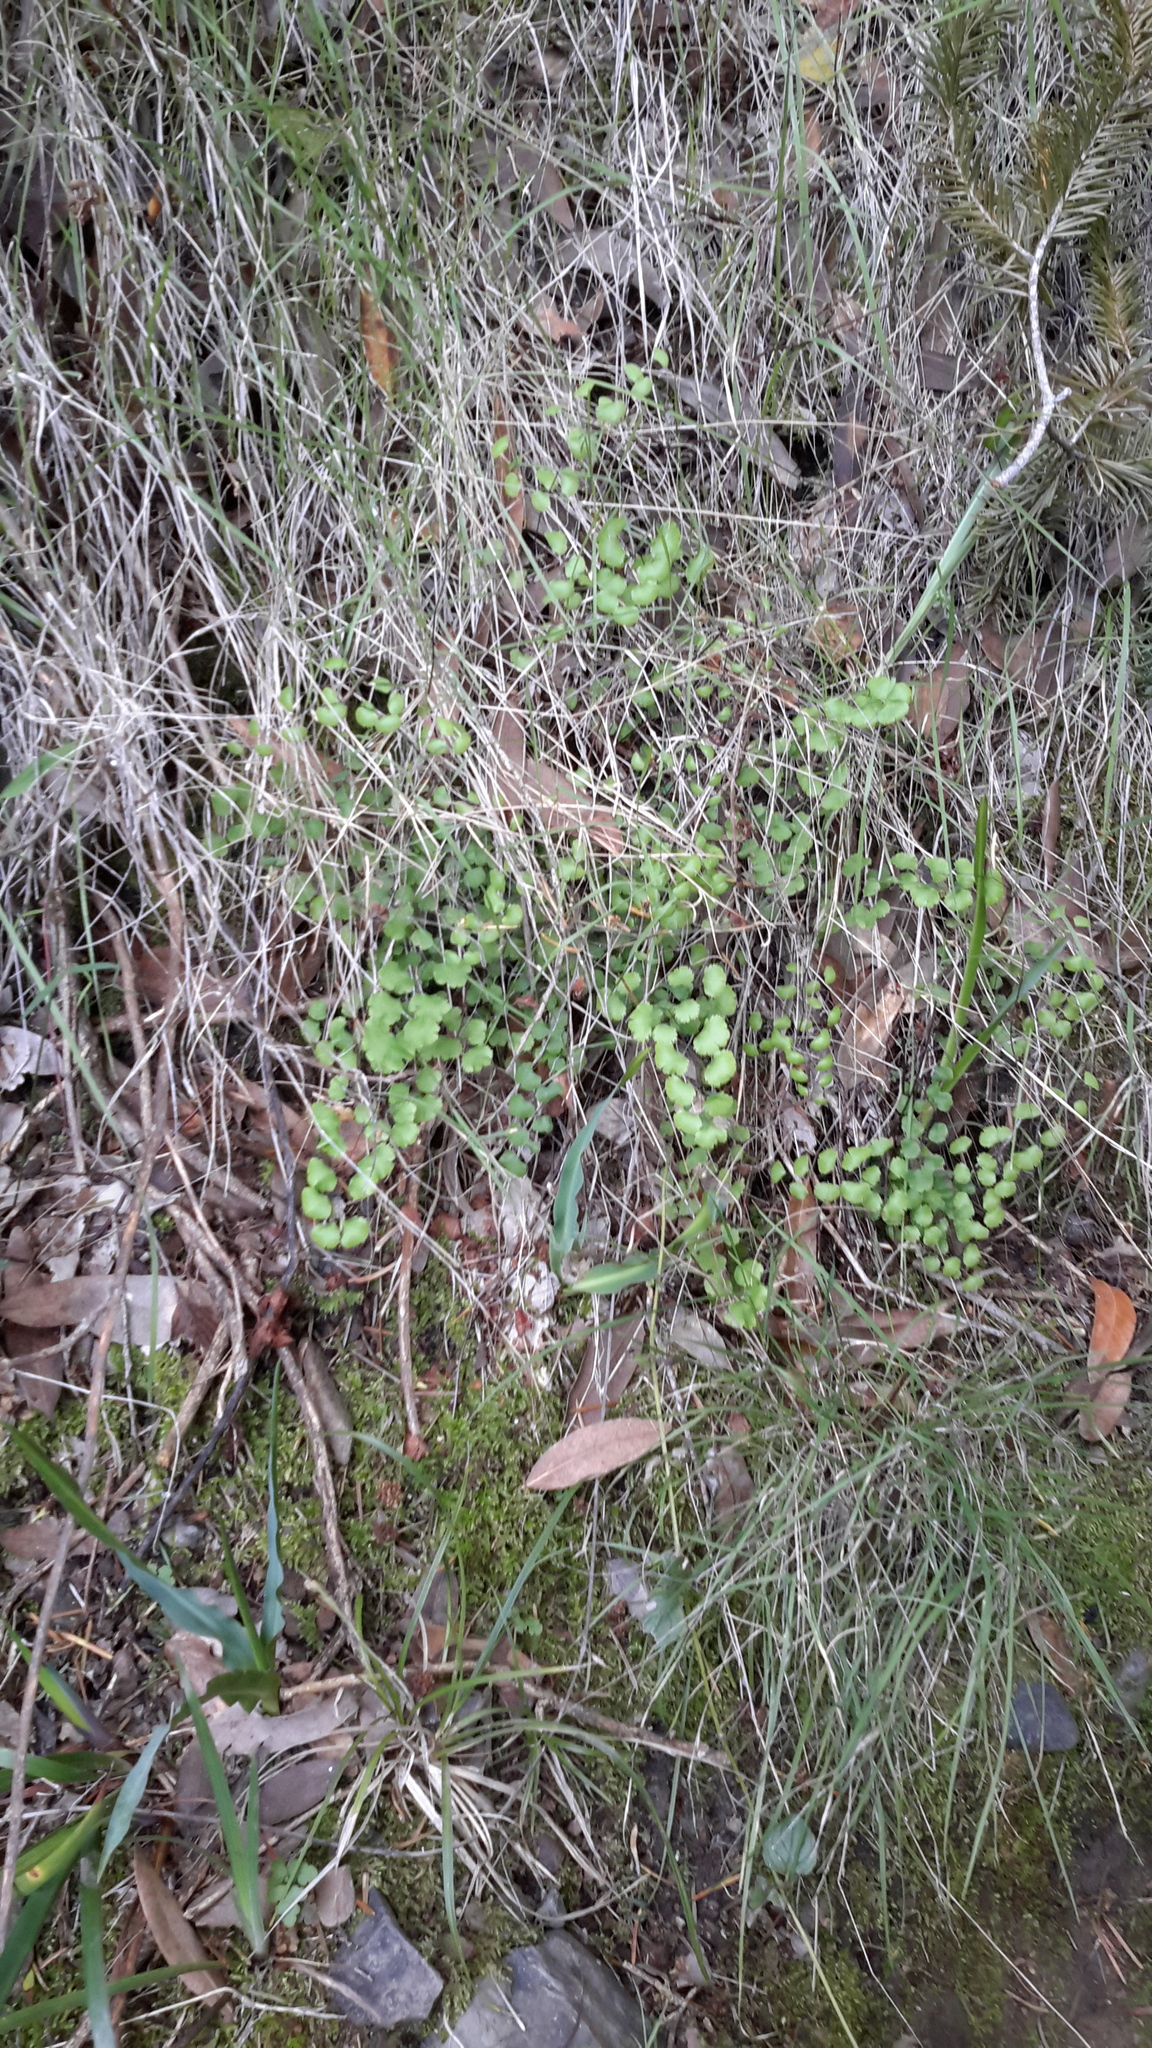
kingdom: Plantae
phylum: Tracheophyta
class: Polypodiopsida
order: Polypodiales
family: Pteridaceae
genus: Adiantum
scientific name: Adiantum jordanii
